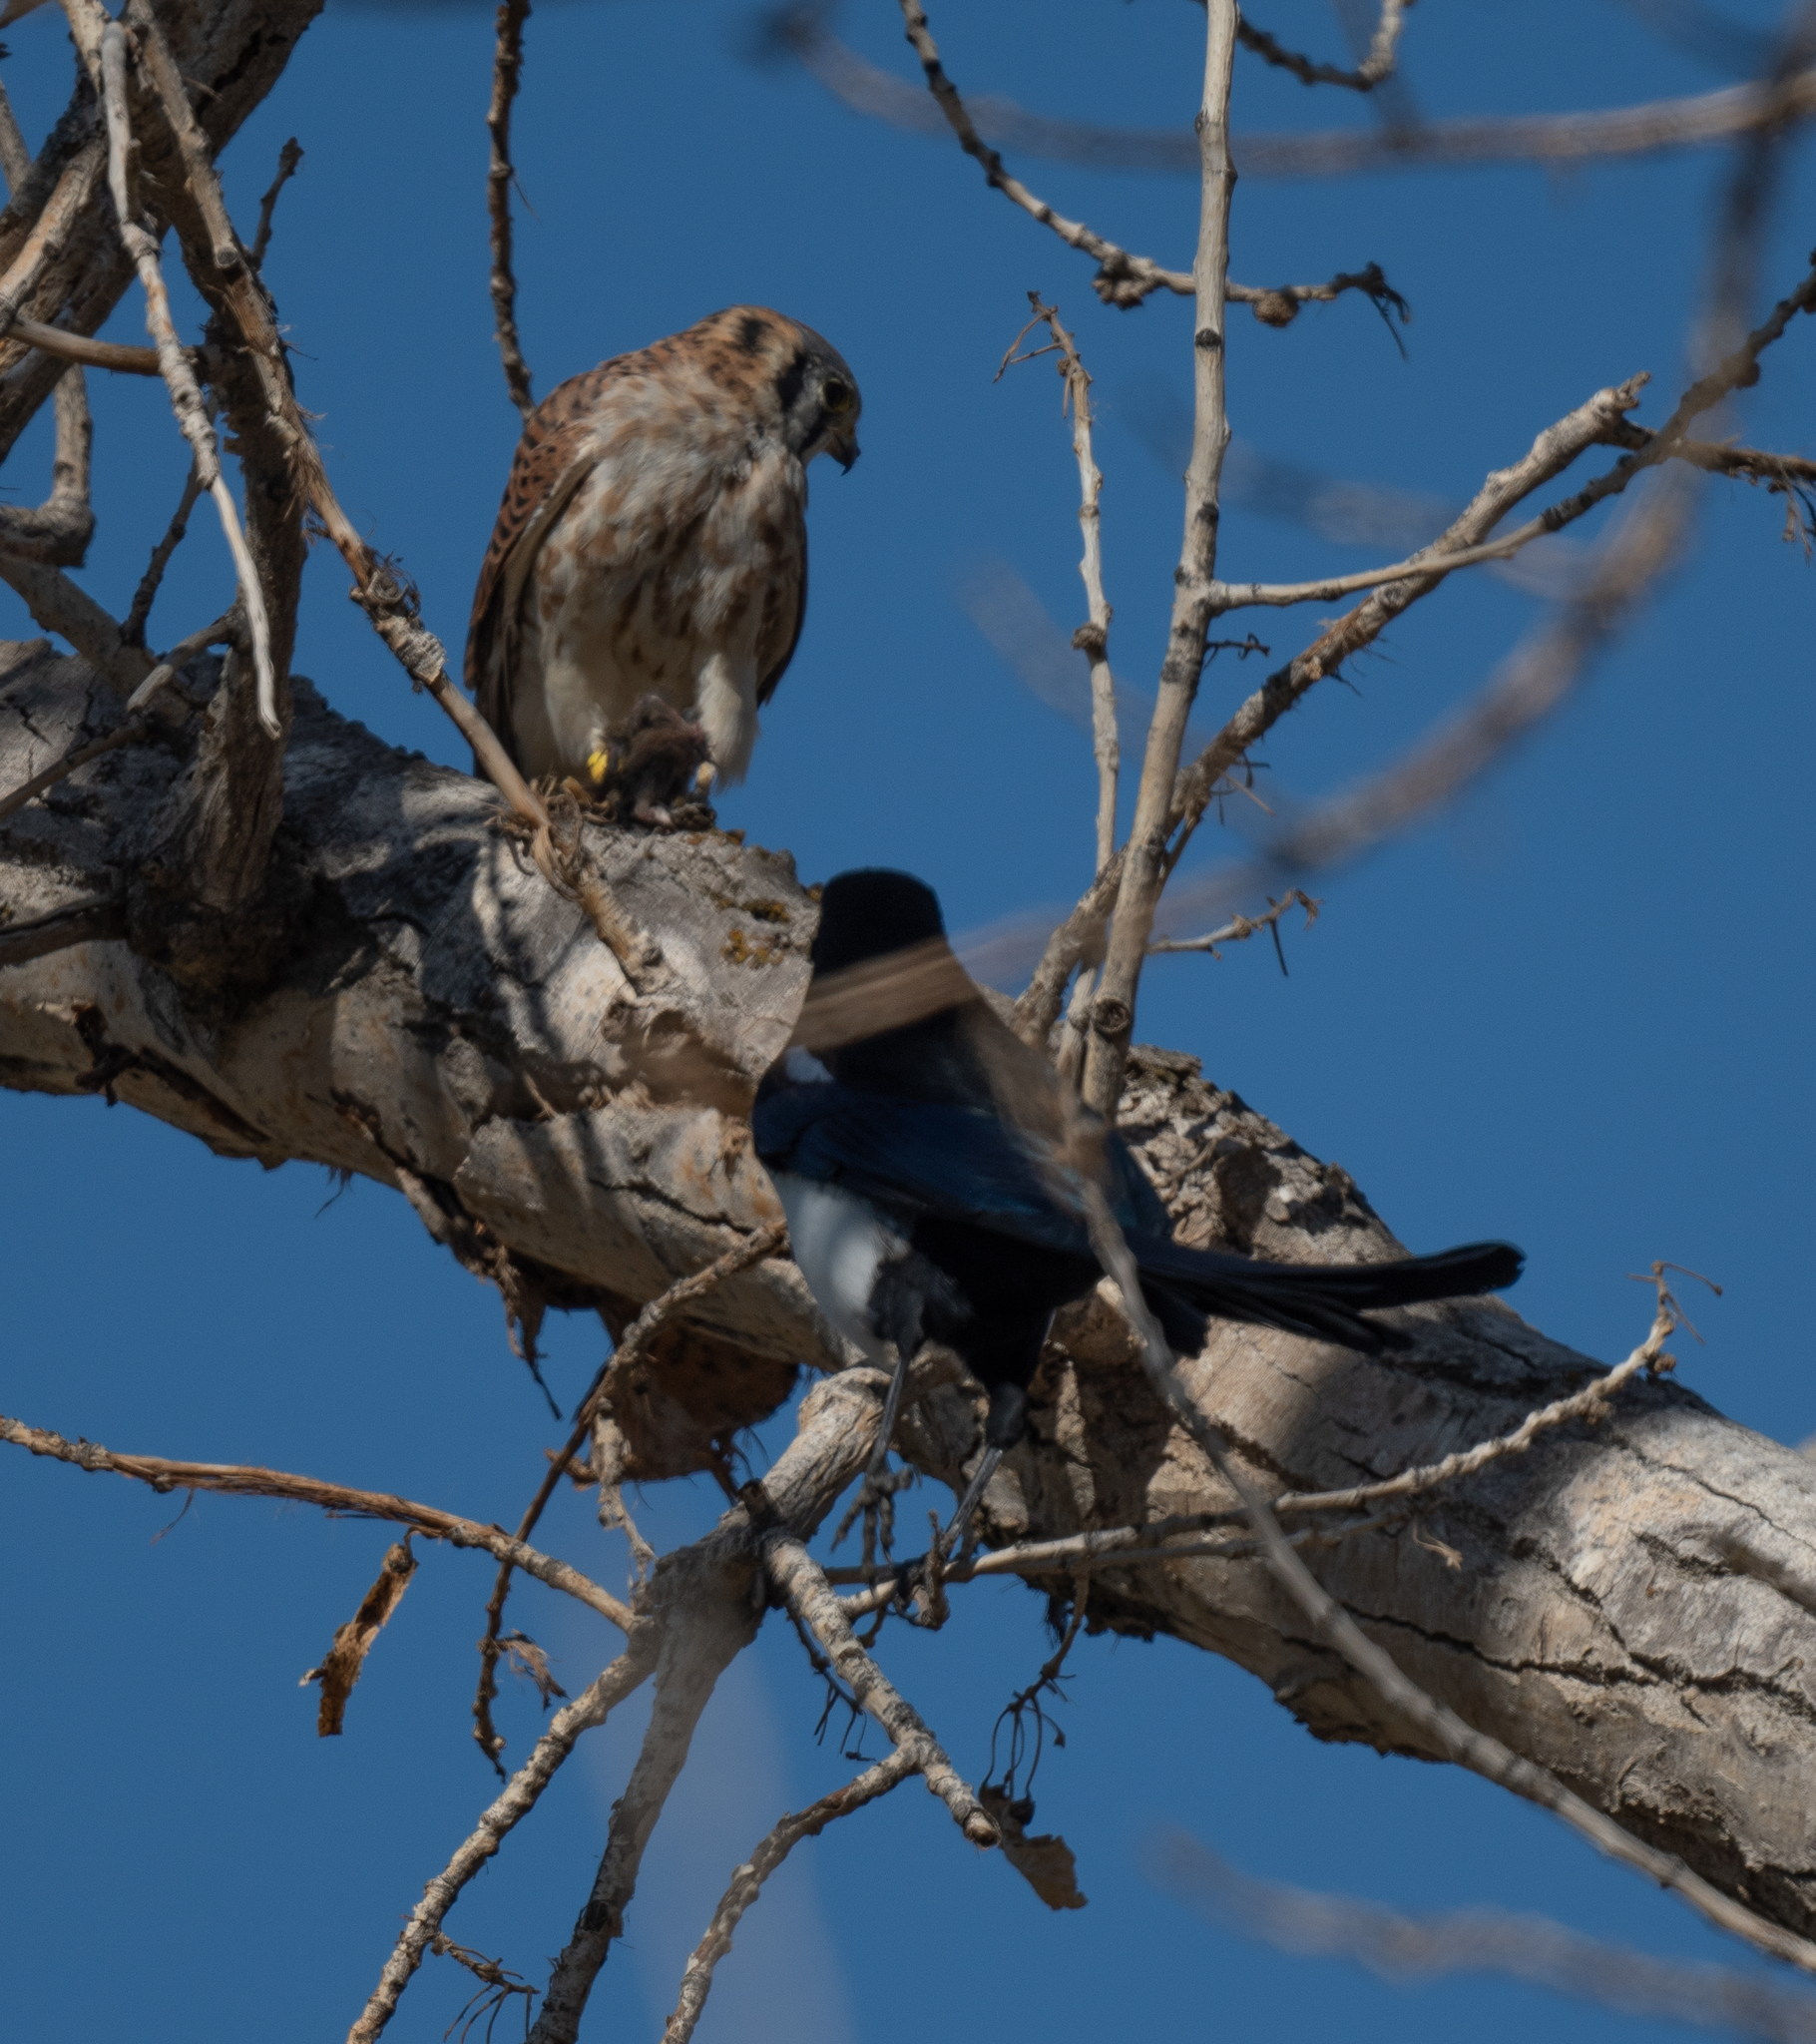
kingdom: Animalia
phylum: Chordata
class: Aves
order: Falconiformes
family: Falconidae
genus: Falco
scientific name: Falco sparverius
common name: American kestrel
